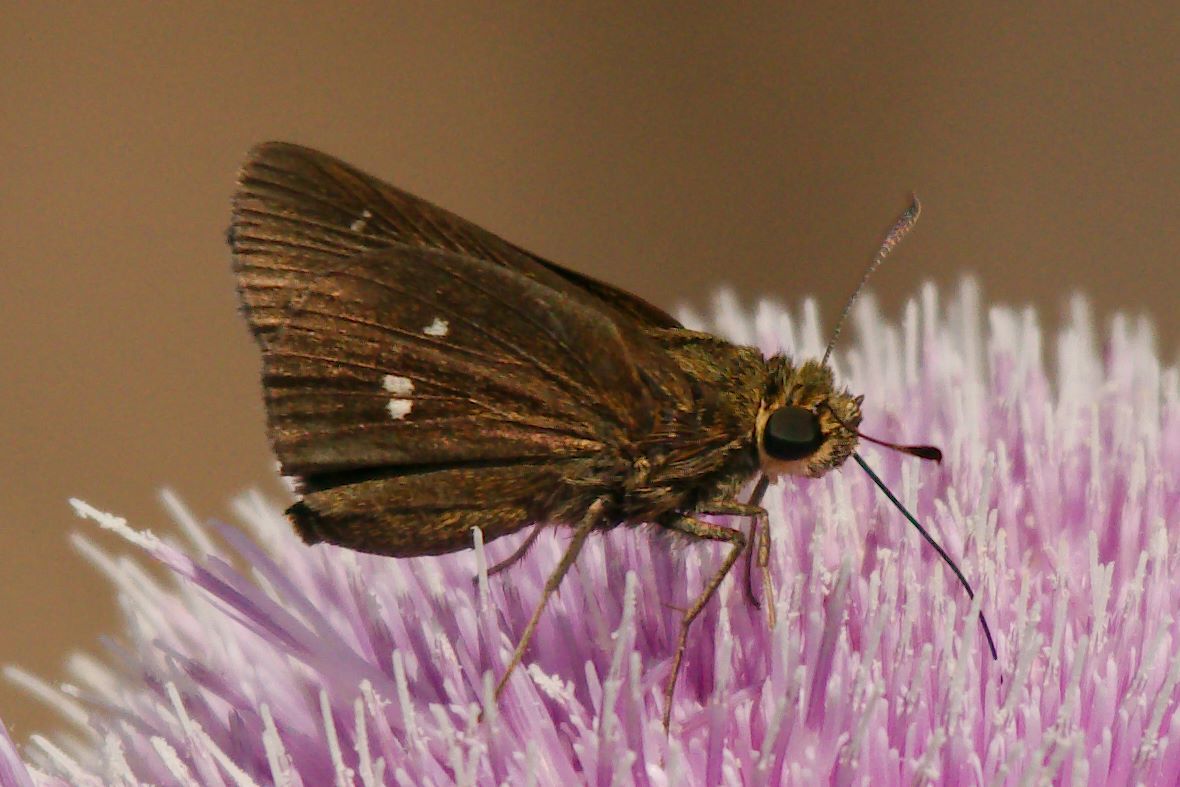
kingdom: Animalia
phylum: Arthropoda
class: Insecta
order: Lepidoptera
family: Hesperiidae
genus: Oligoria
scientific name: Oligoria maculata
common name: Twin-spot skipper
